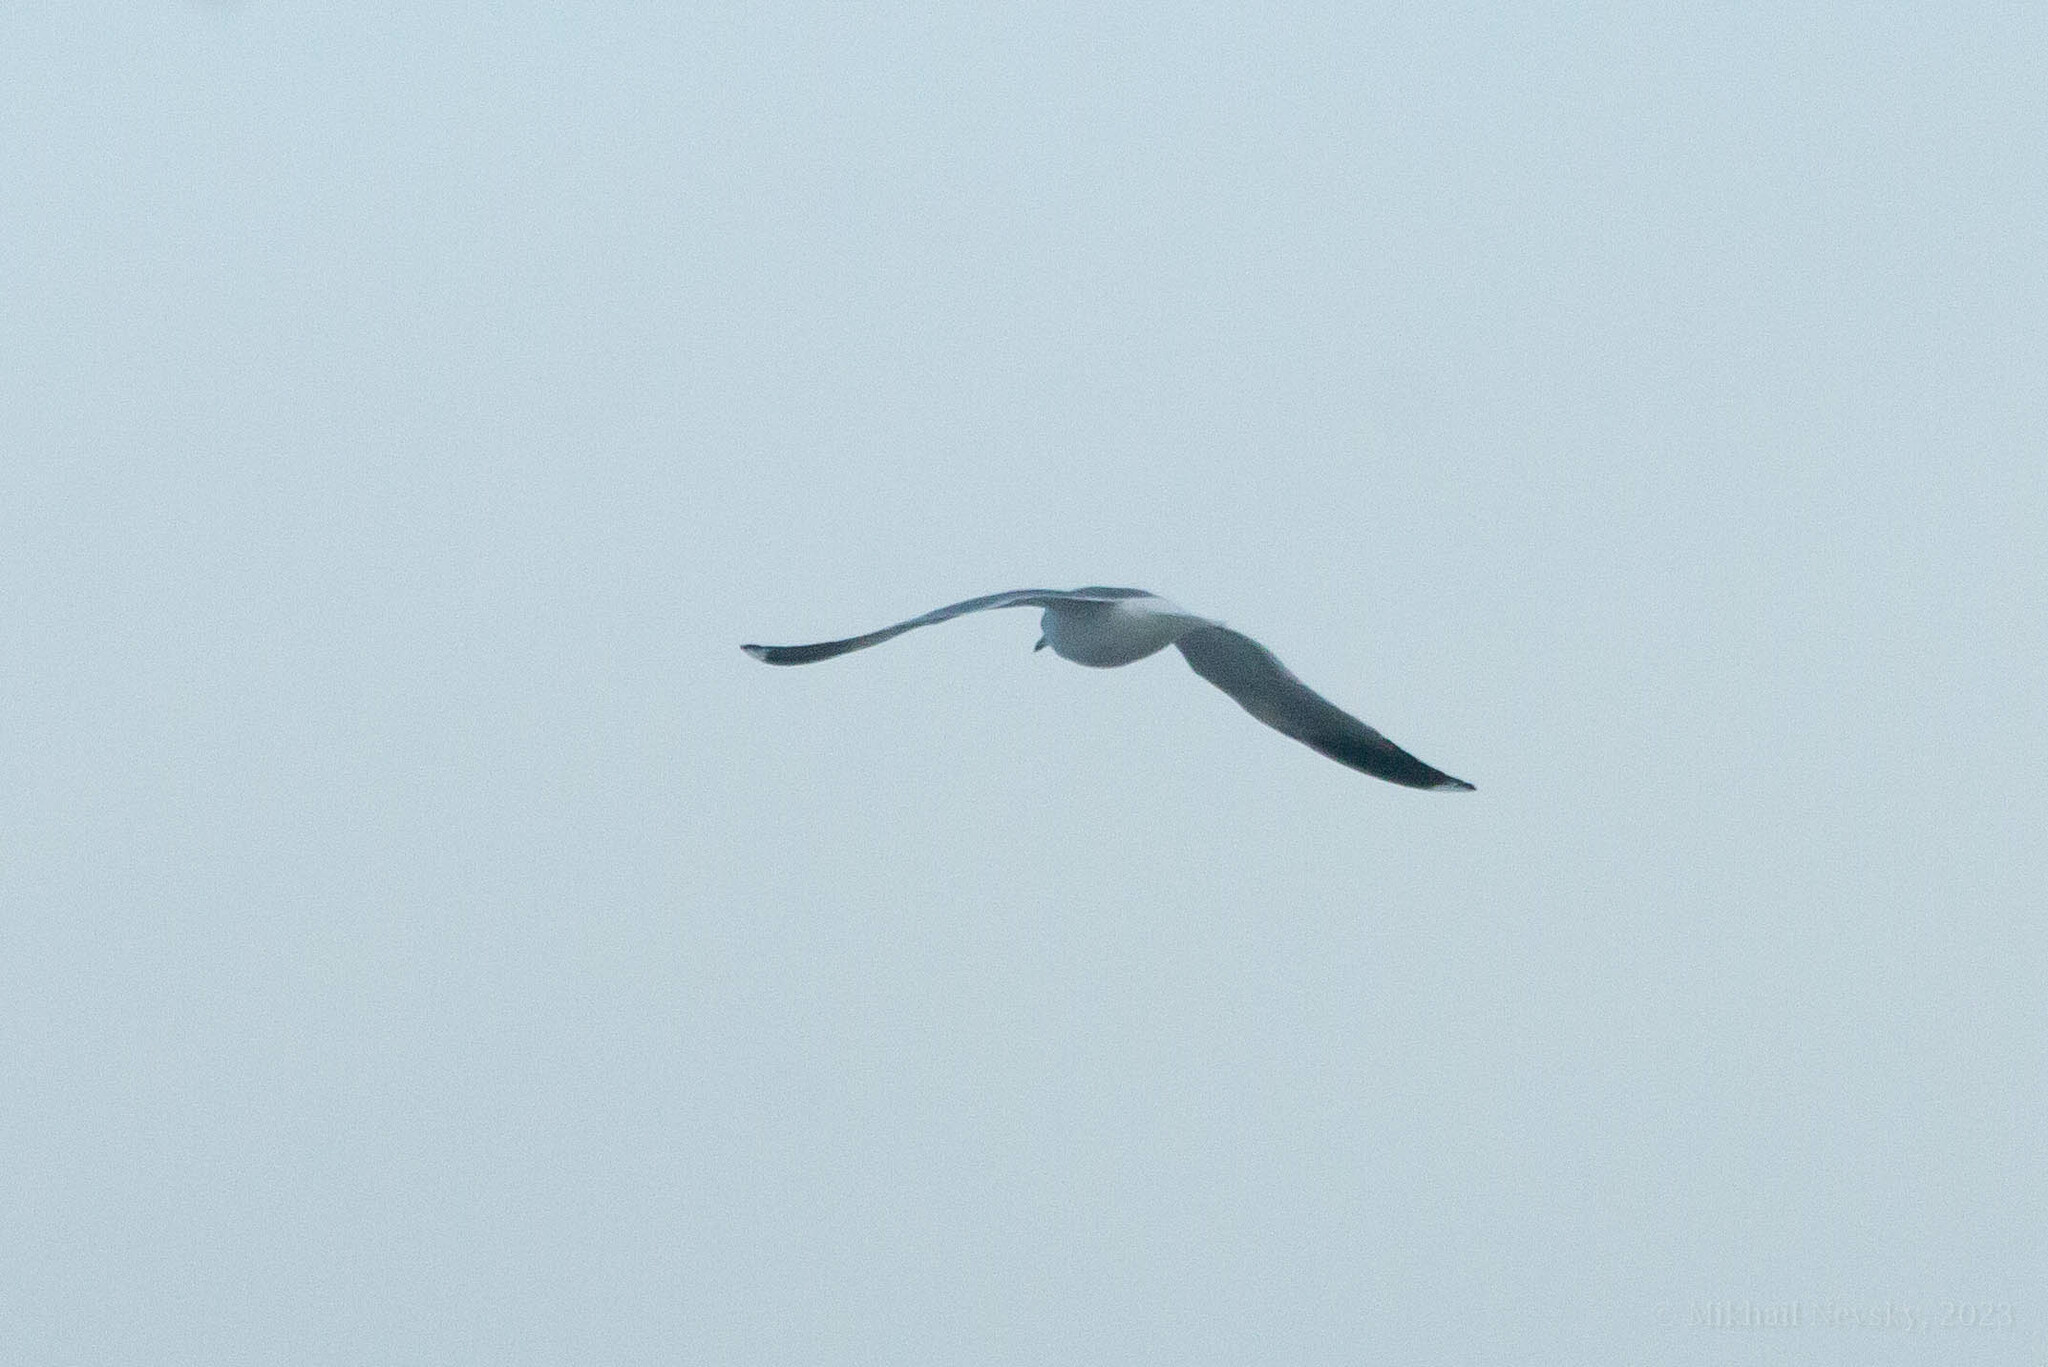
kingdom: Animalia
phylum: Chordata
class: Aves
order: Charadriiformes
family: Laridae
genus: Larus
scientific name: Larus canus
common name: Mew gull
